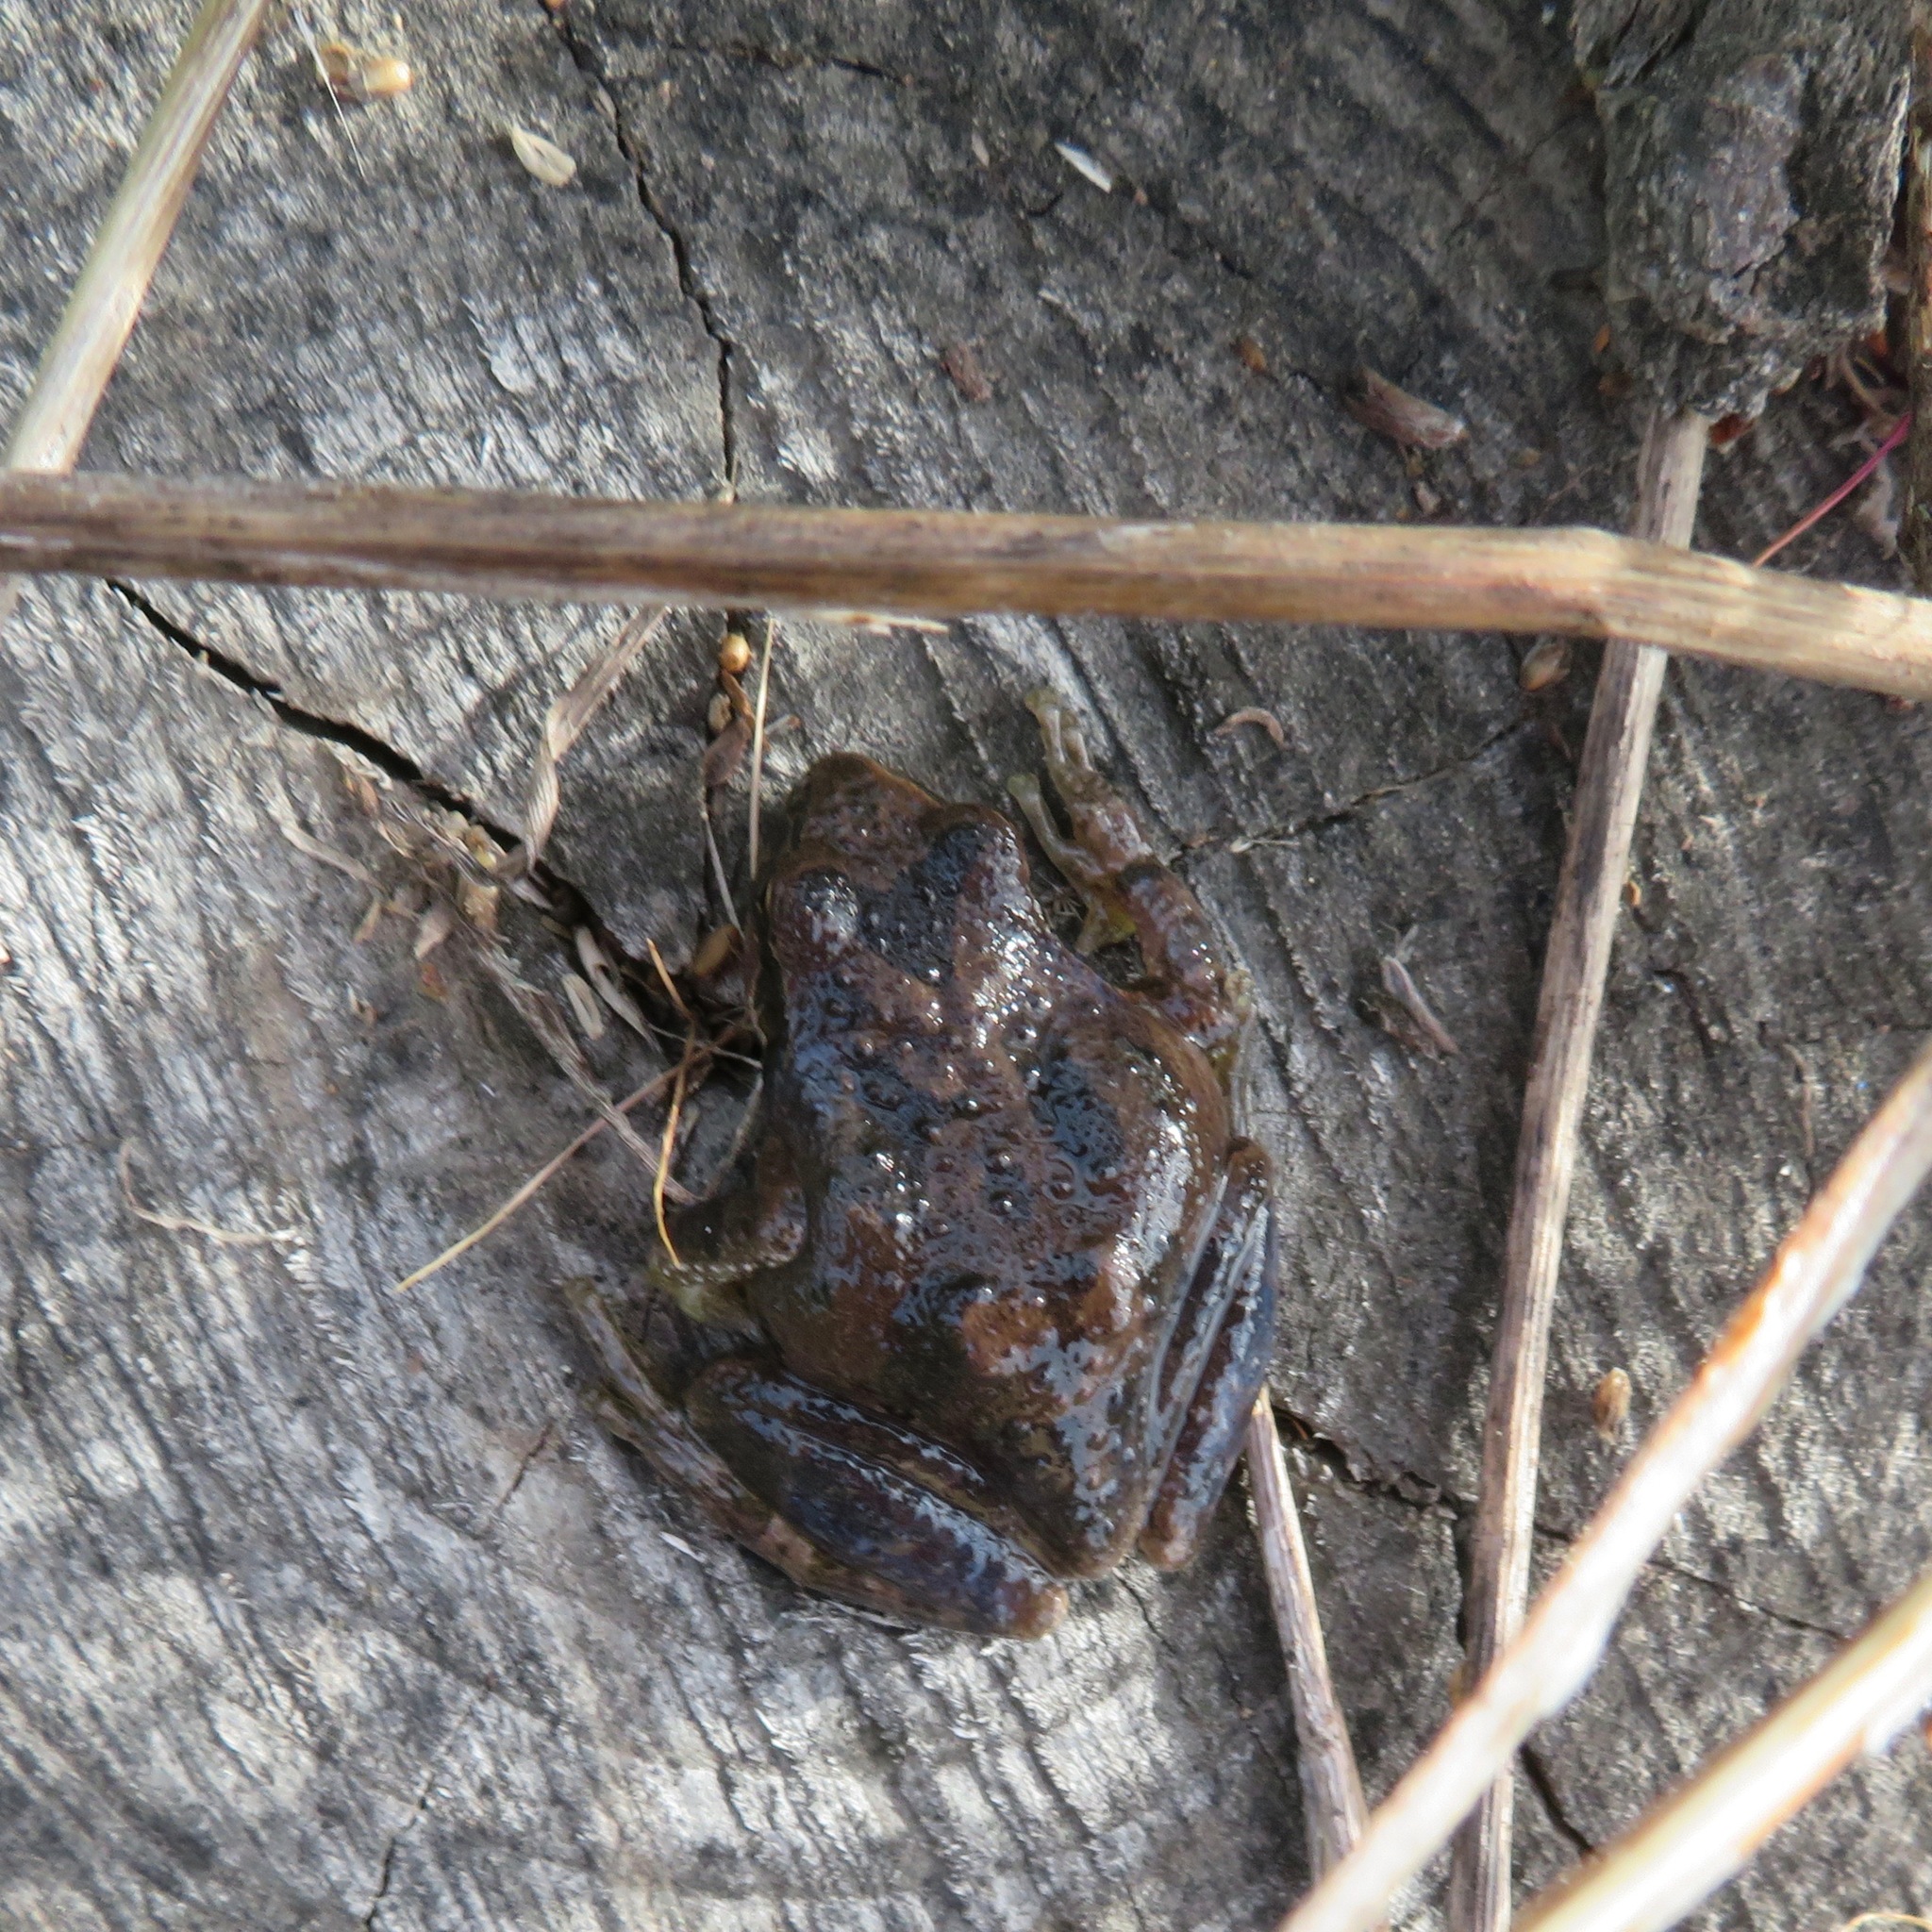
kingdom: Animalia
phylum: Chordata
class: Amphibia
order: Anura
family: Hylidae
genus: Pseudacris
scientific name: Pseudacris regilla
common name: Pacific chorus frog
